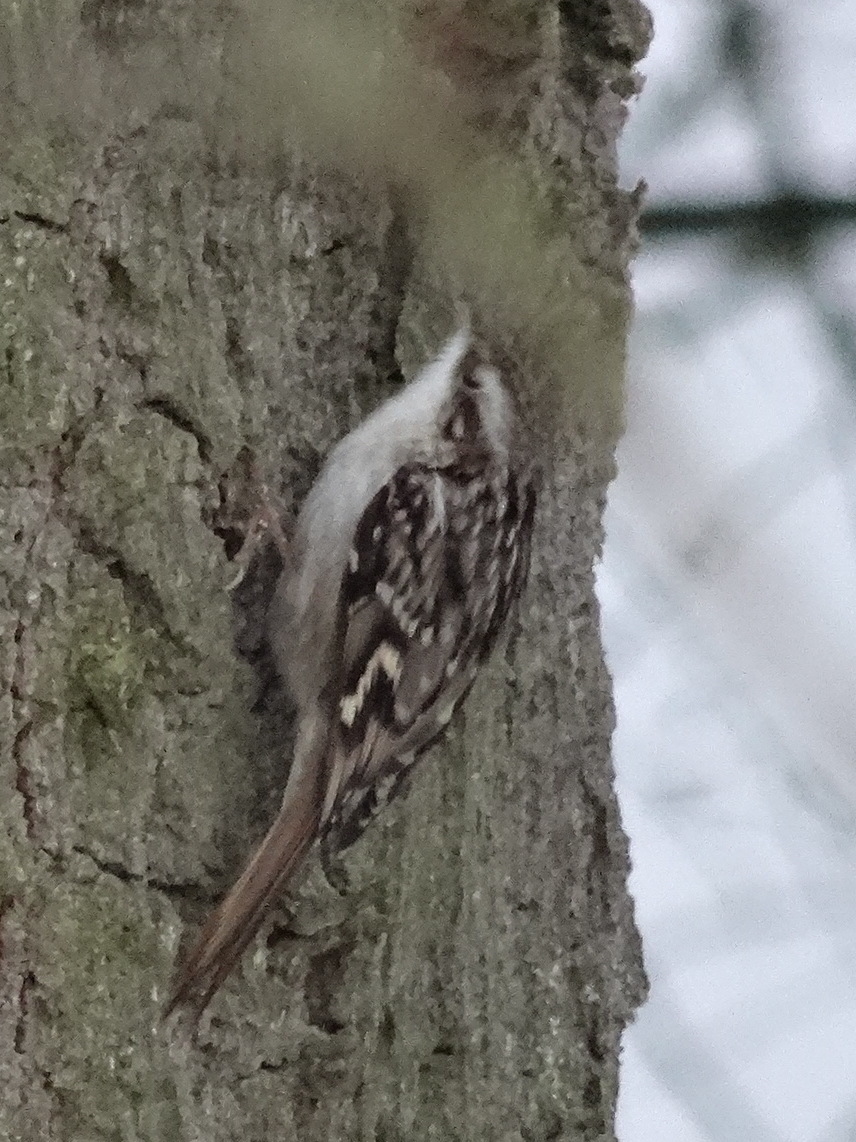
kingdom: Animalia
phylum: Chordata
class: Aves
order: Passeriformes
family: Certhiidae
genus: Certhia
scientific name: Certhia brachydactyla
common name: Short-toed treecreeper
